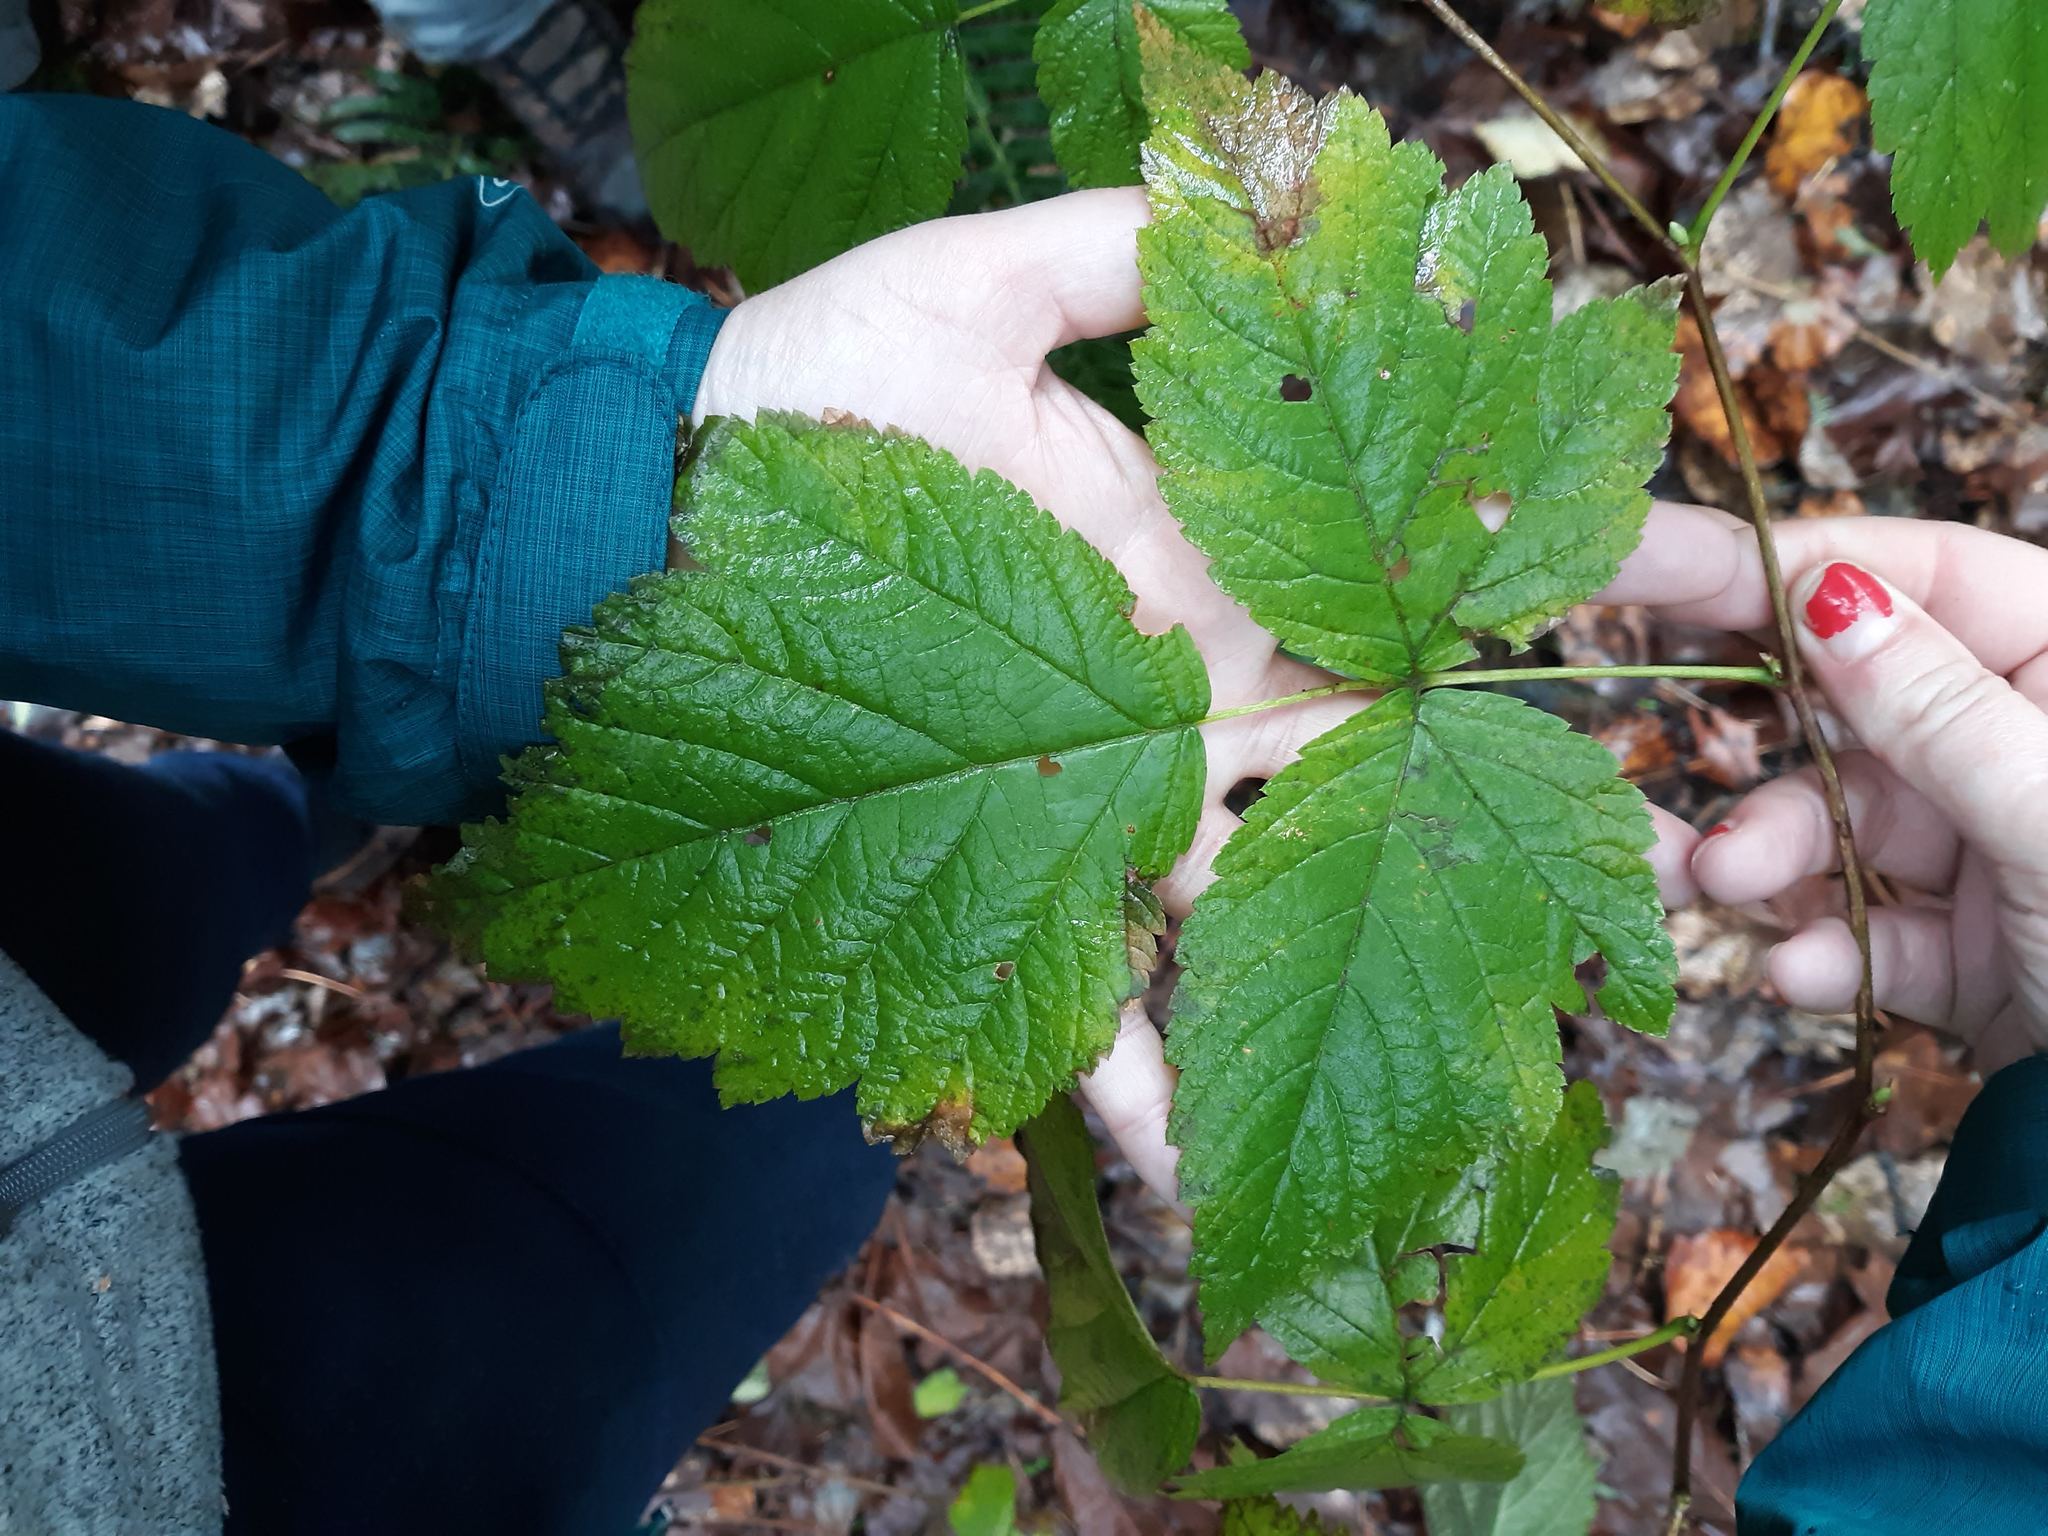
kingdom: Plantae
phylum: Tracheophyta
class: Magnoliopsida
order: Rosales
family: Rosaceae
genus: Rubus
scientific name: Rubus spectabilis
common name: Salmonberry
